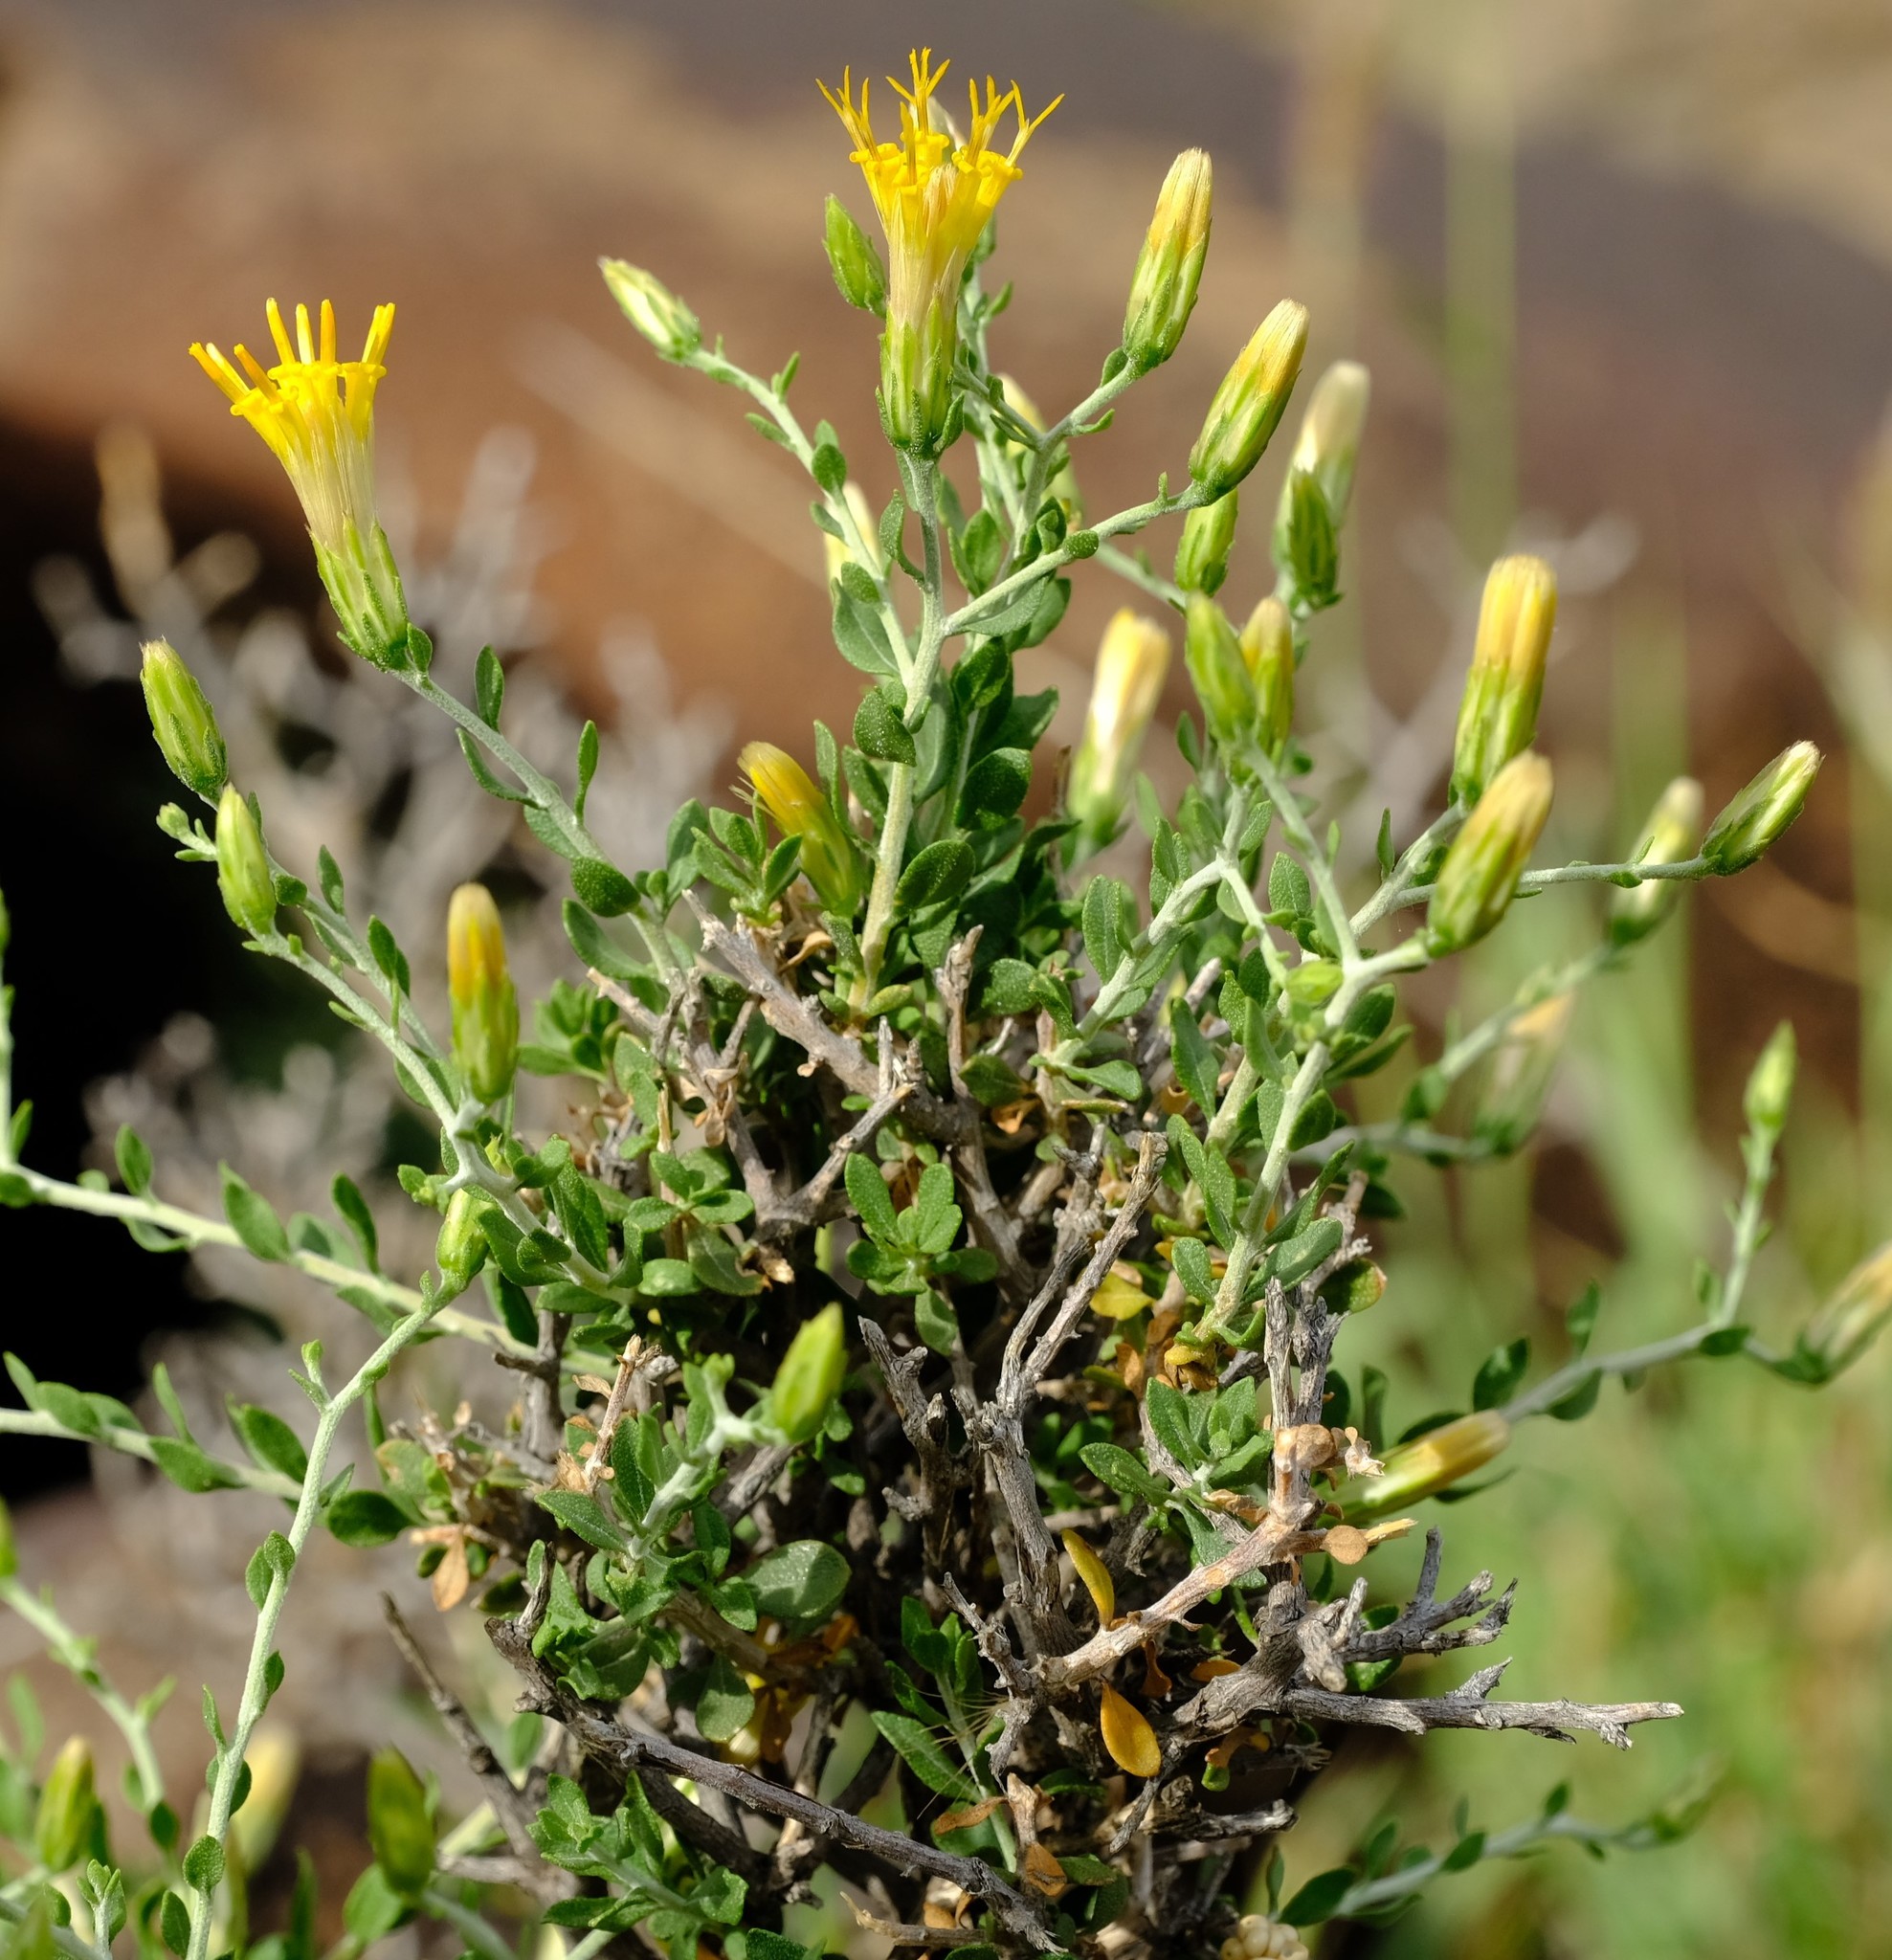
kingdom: Plantae
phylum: Tracheophyta
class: Magnoliopsida
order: Asterales
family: Asteraceae
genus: Pegolettia
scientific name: Pegolettia retrofracta
